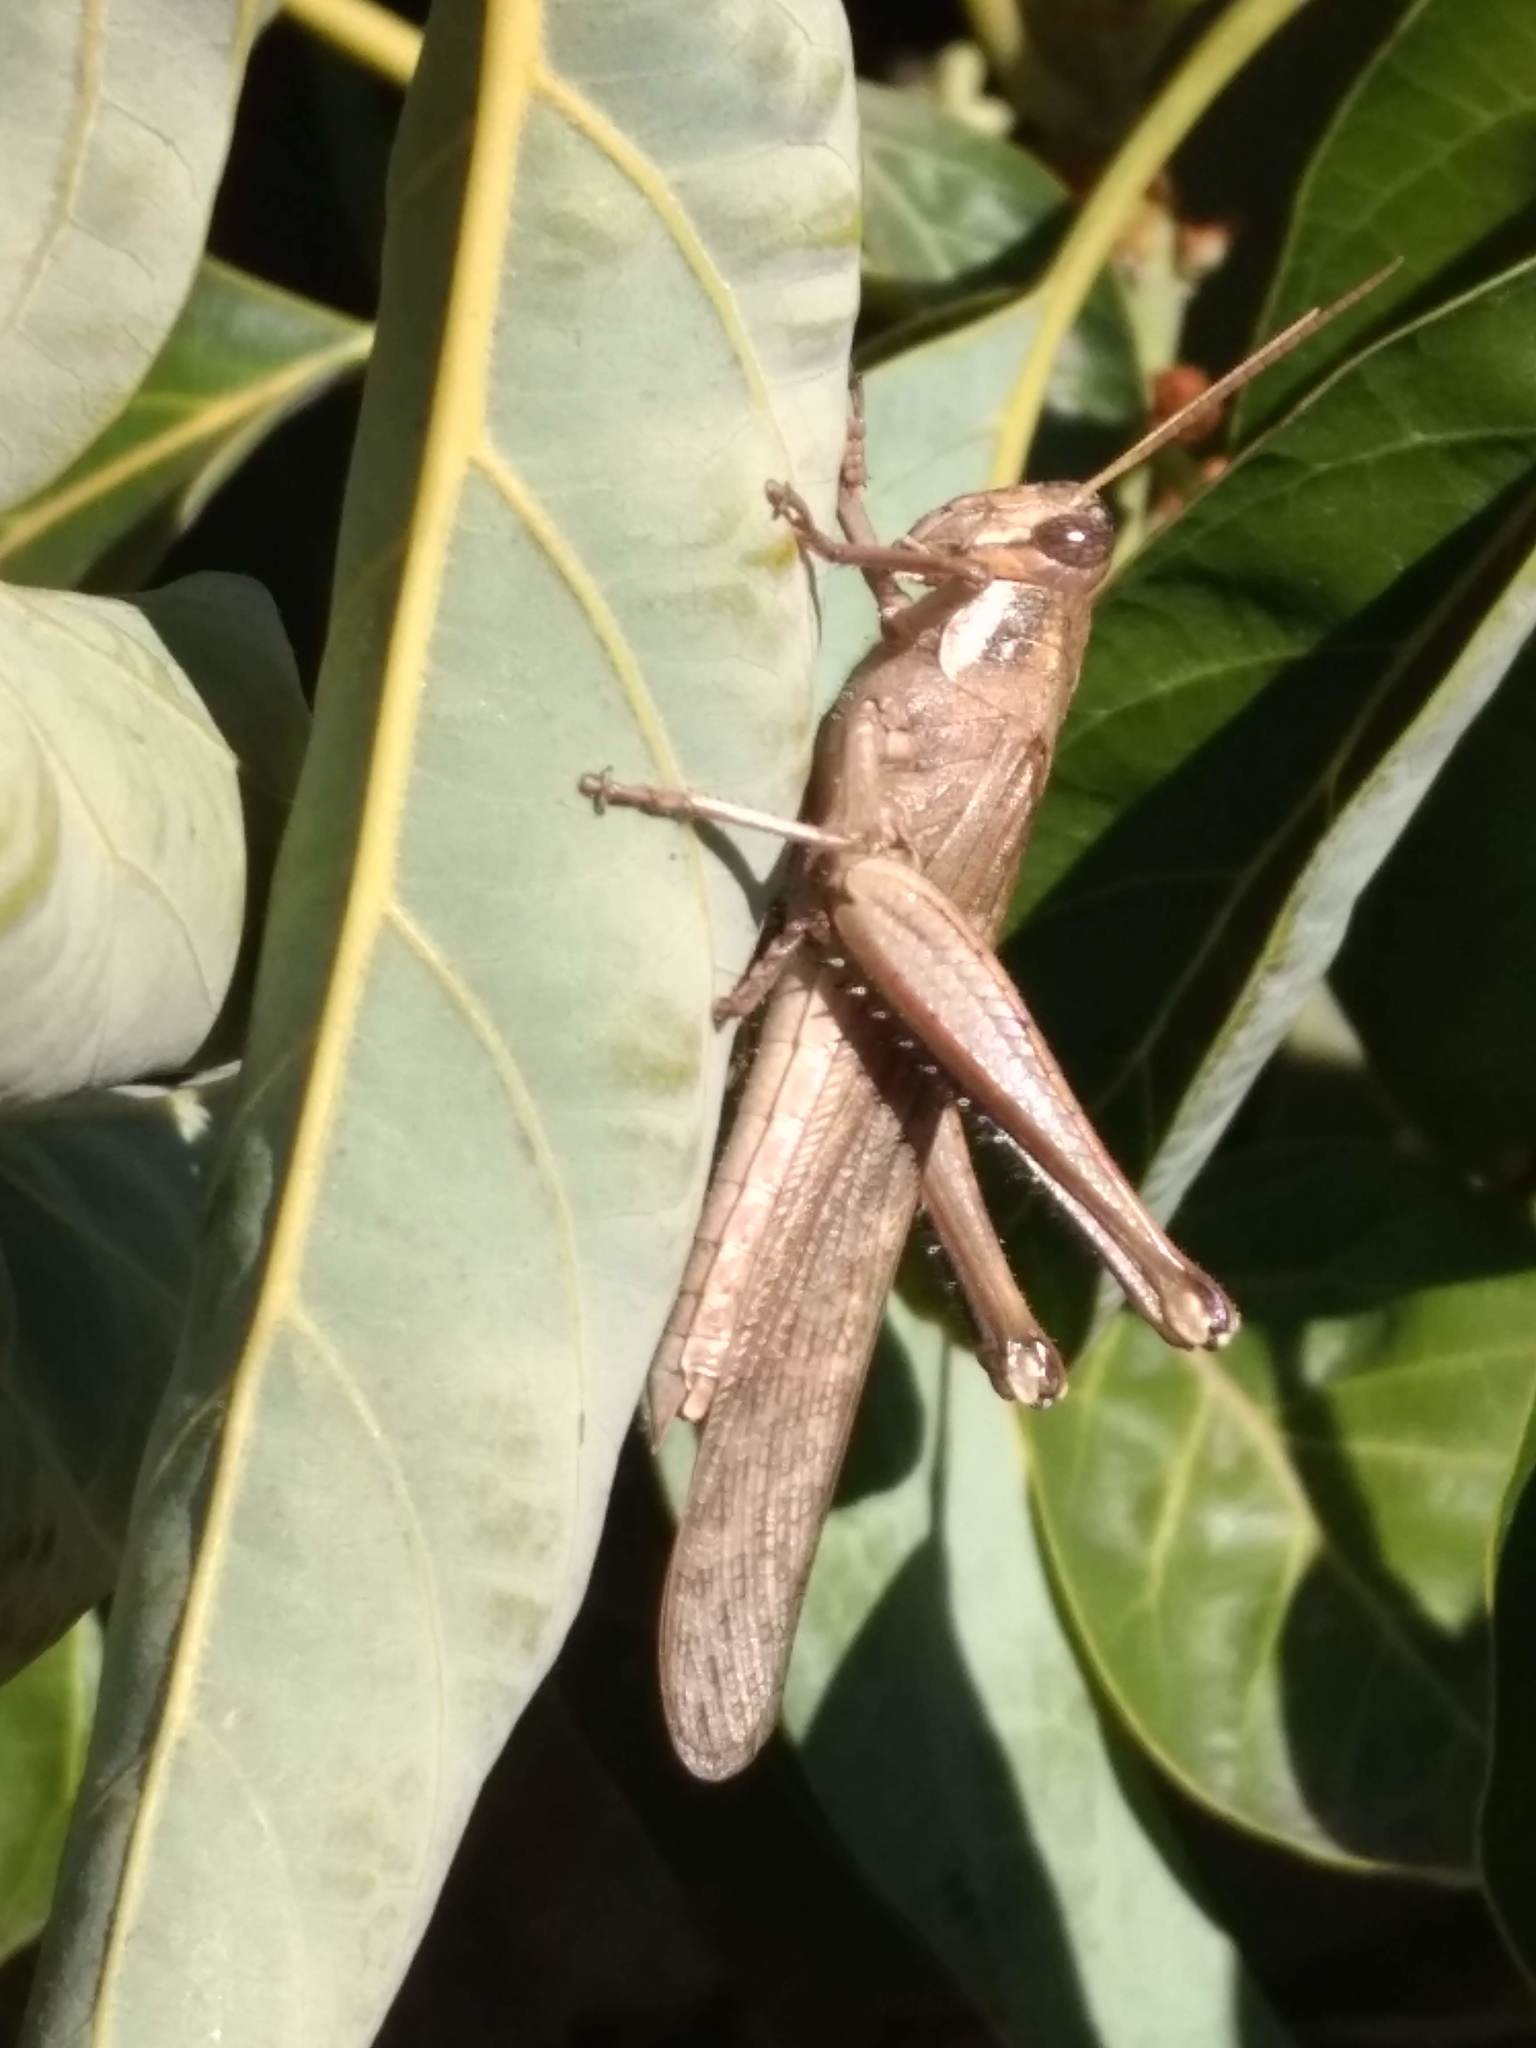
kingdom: Animalia
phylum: Arthropoda
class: Insecta
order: Orthoptera
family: Acrididae
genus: Schistocerca
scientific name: Schistocerca nitens
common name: Vagrant grasshopper
